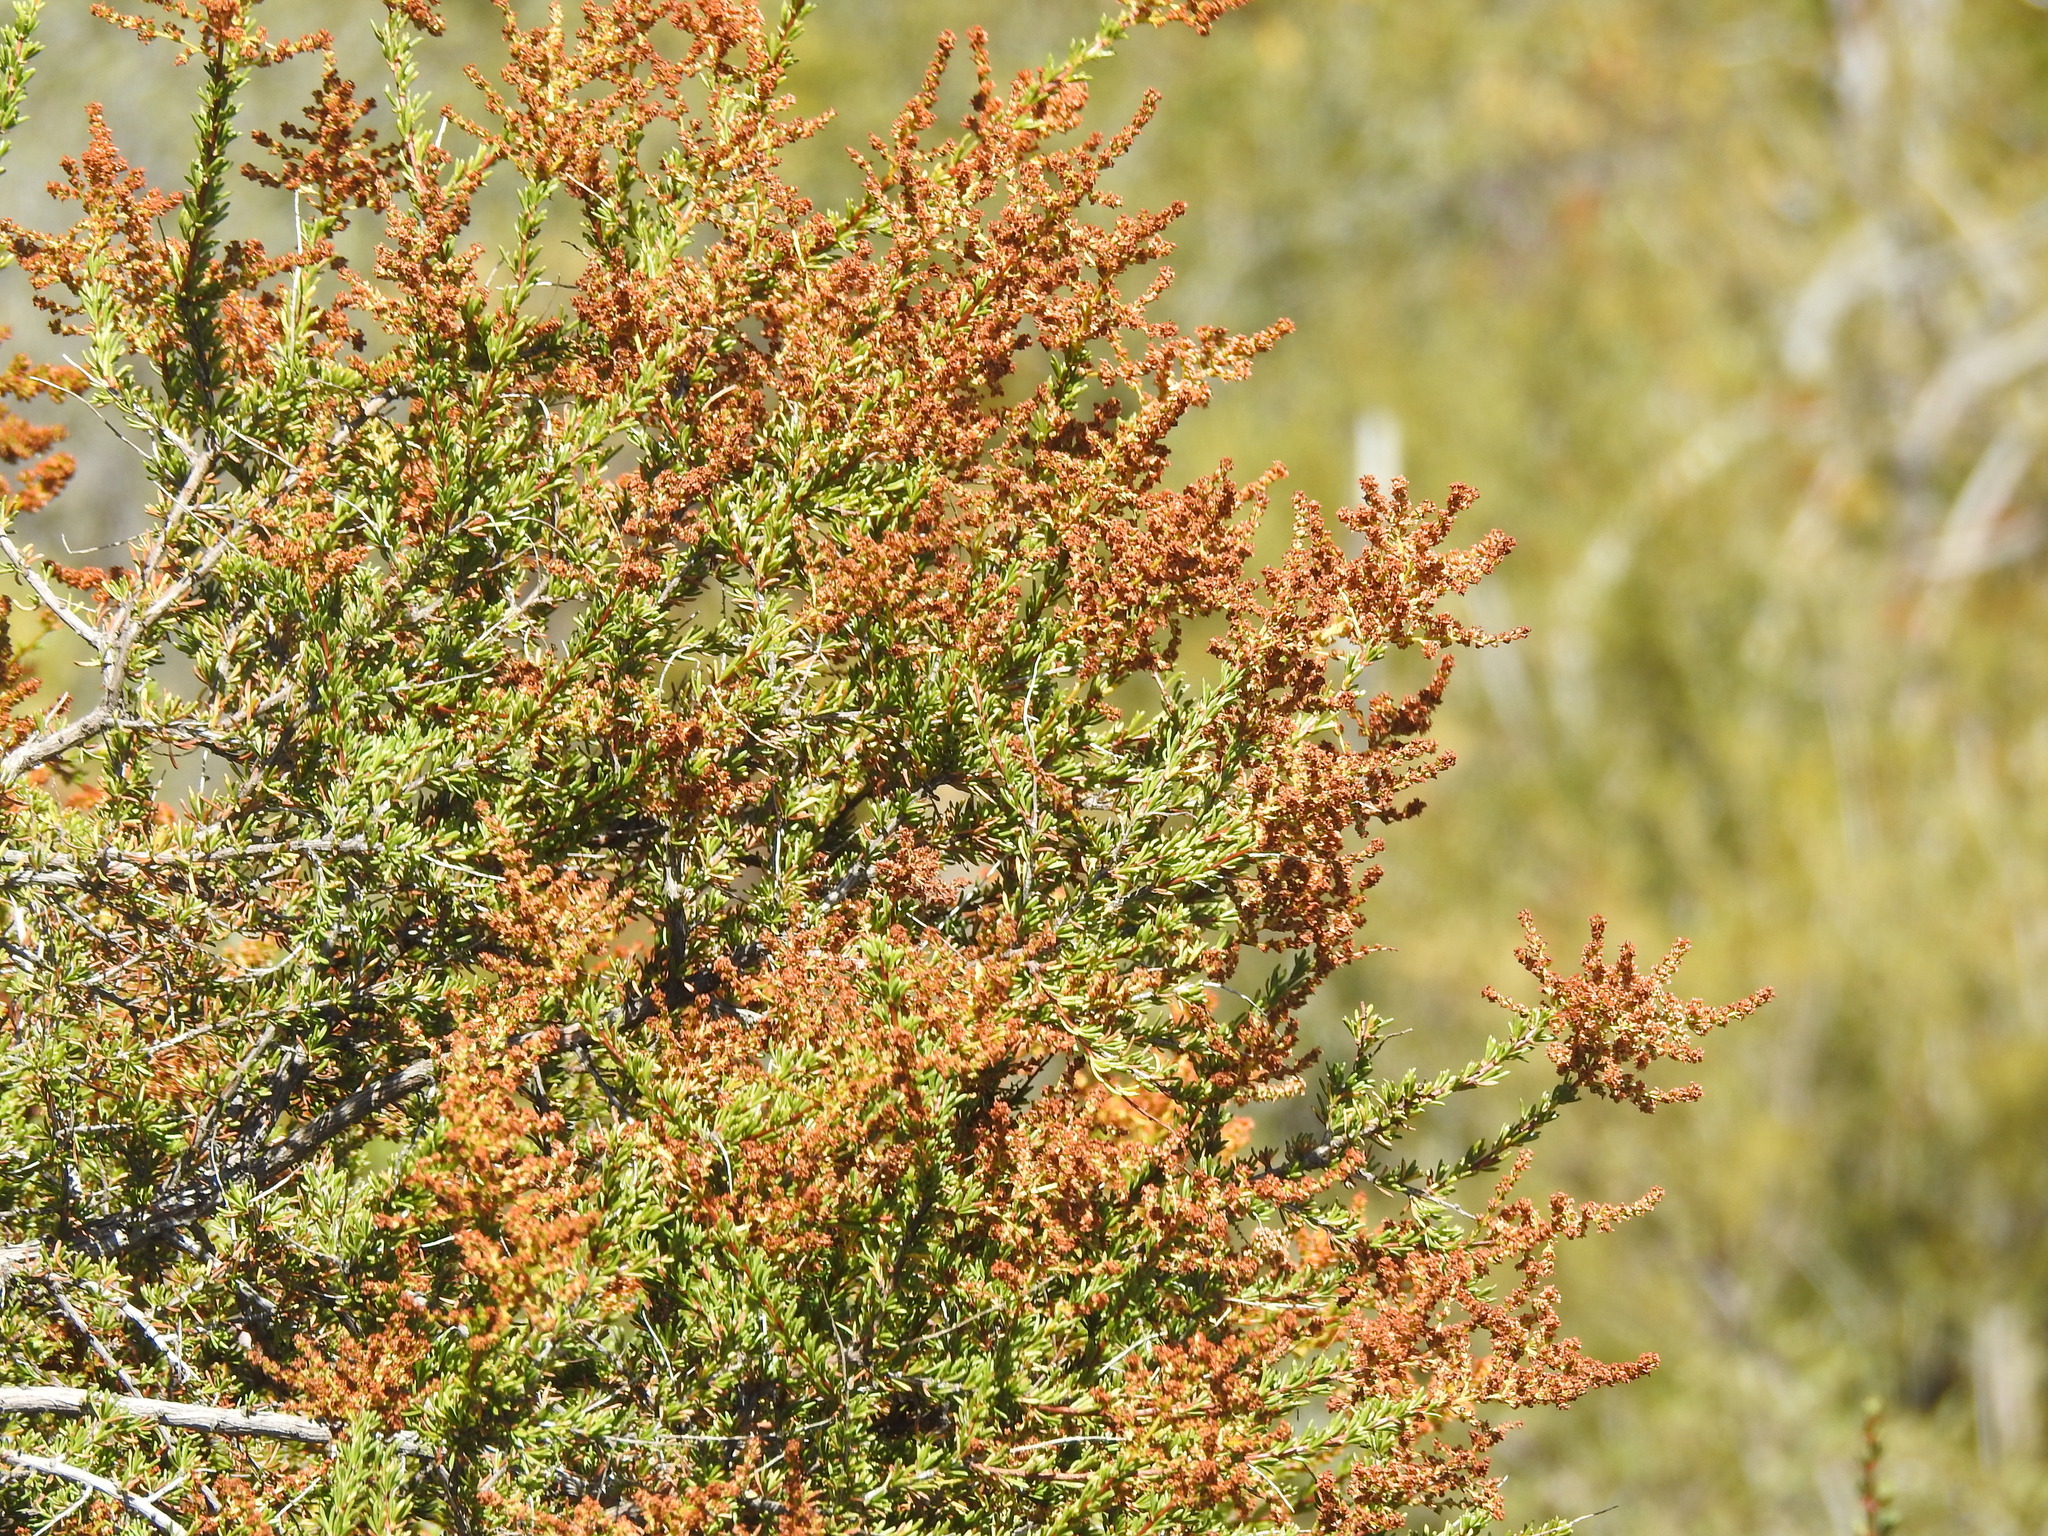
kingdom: Plantae
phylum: Tracheophyta
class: Magnoliopsida
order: Rosales
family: Rosaceae
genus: Adenostoma
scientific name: Adenostoma fasciculatum
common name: Chamise
